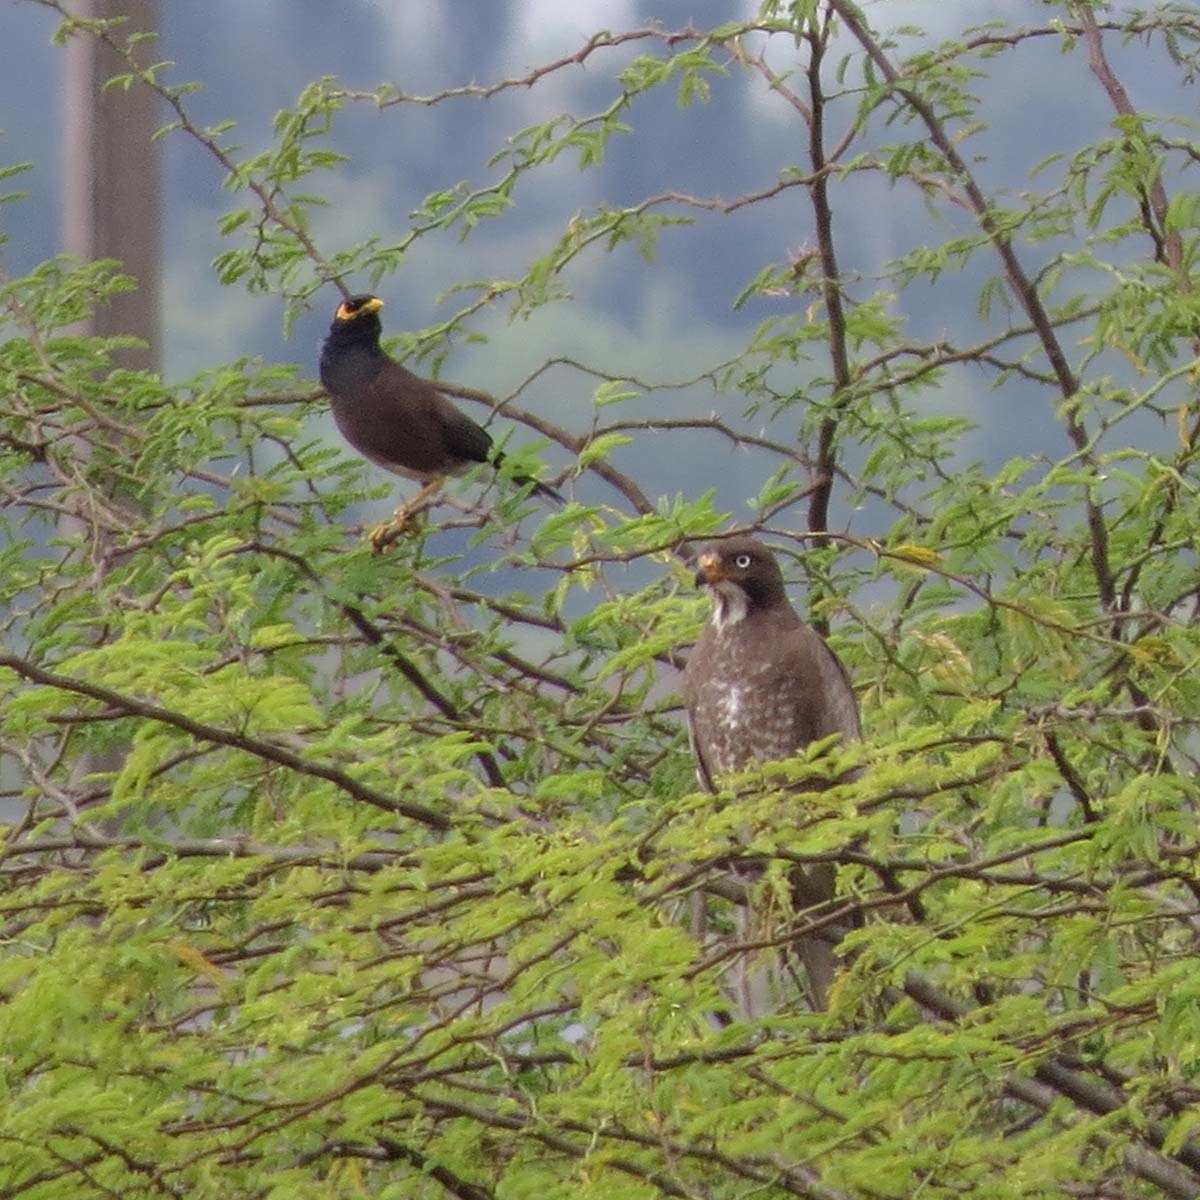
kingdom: Animalia
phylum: Chordata
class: Aves
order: Accipitriformes
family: Accipitridae
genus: Butastur
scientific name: Butastur teesa
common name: White-eyed buzzard
